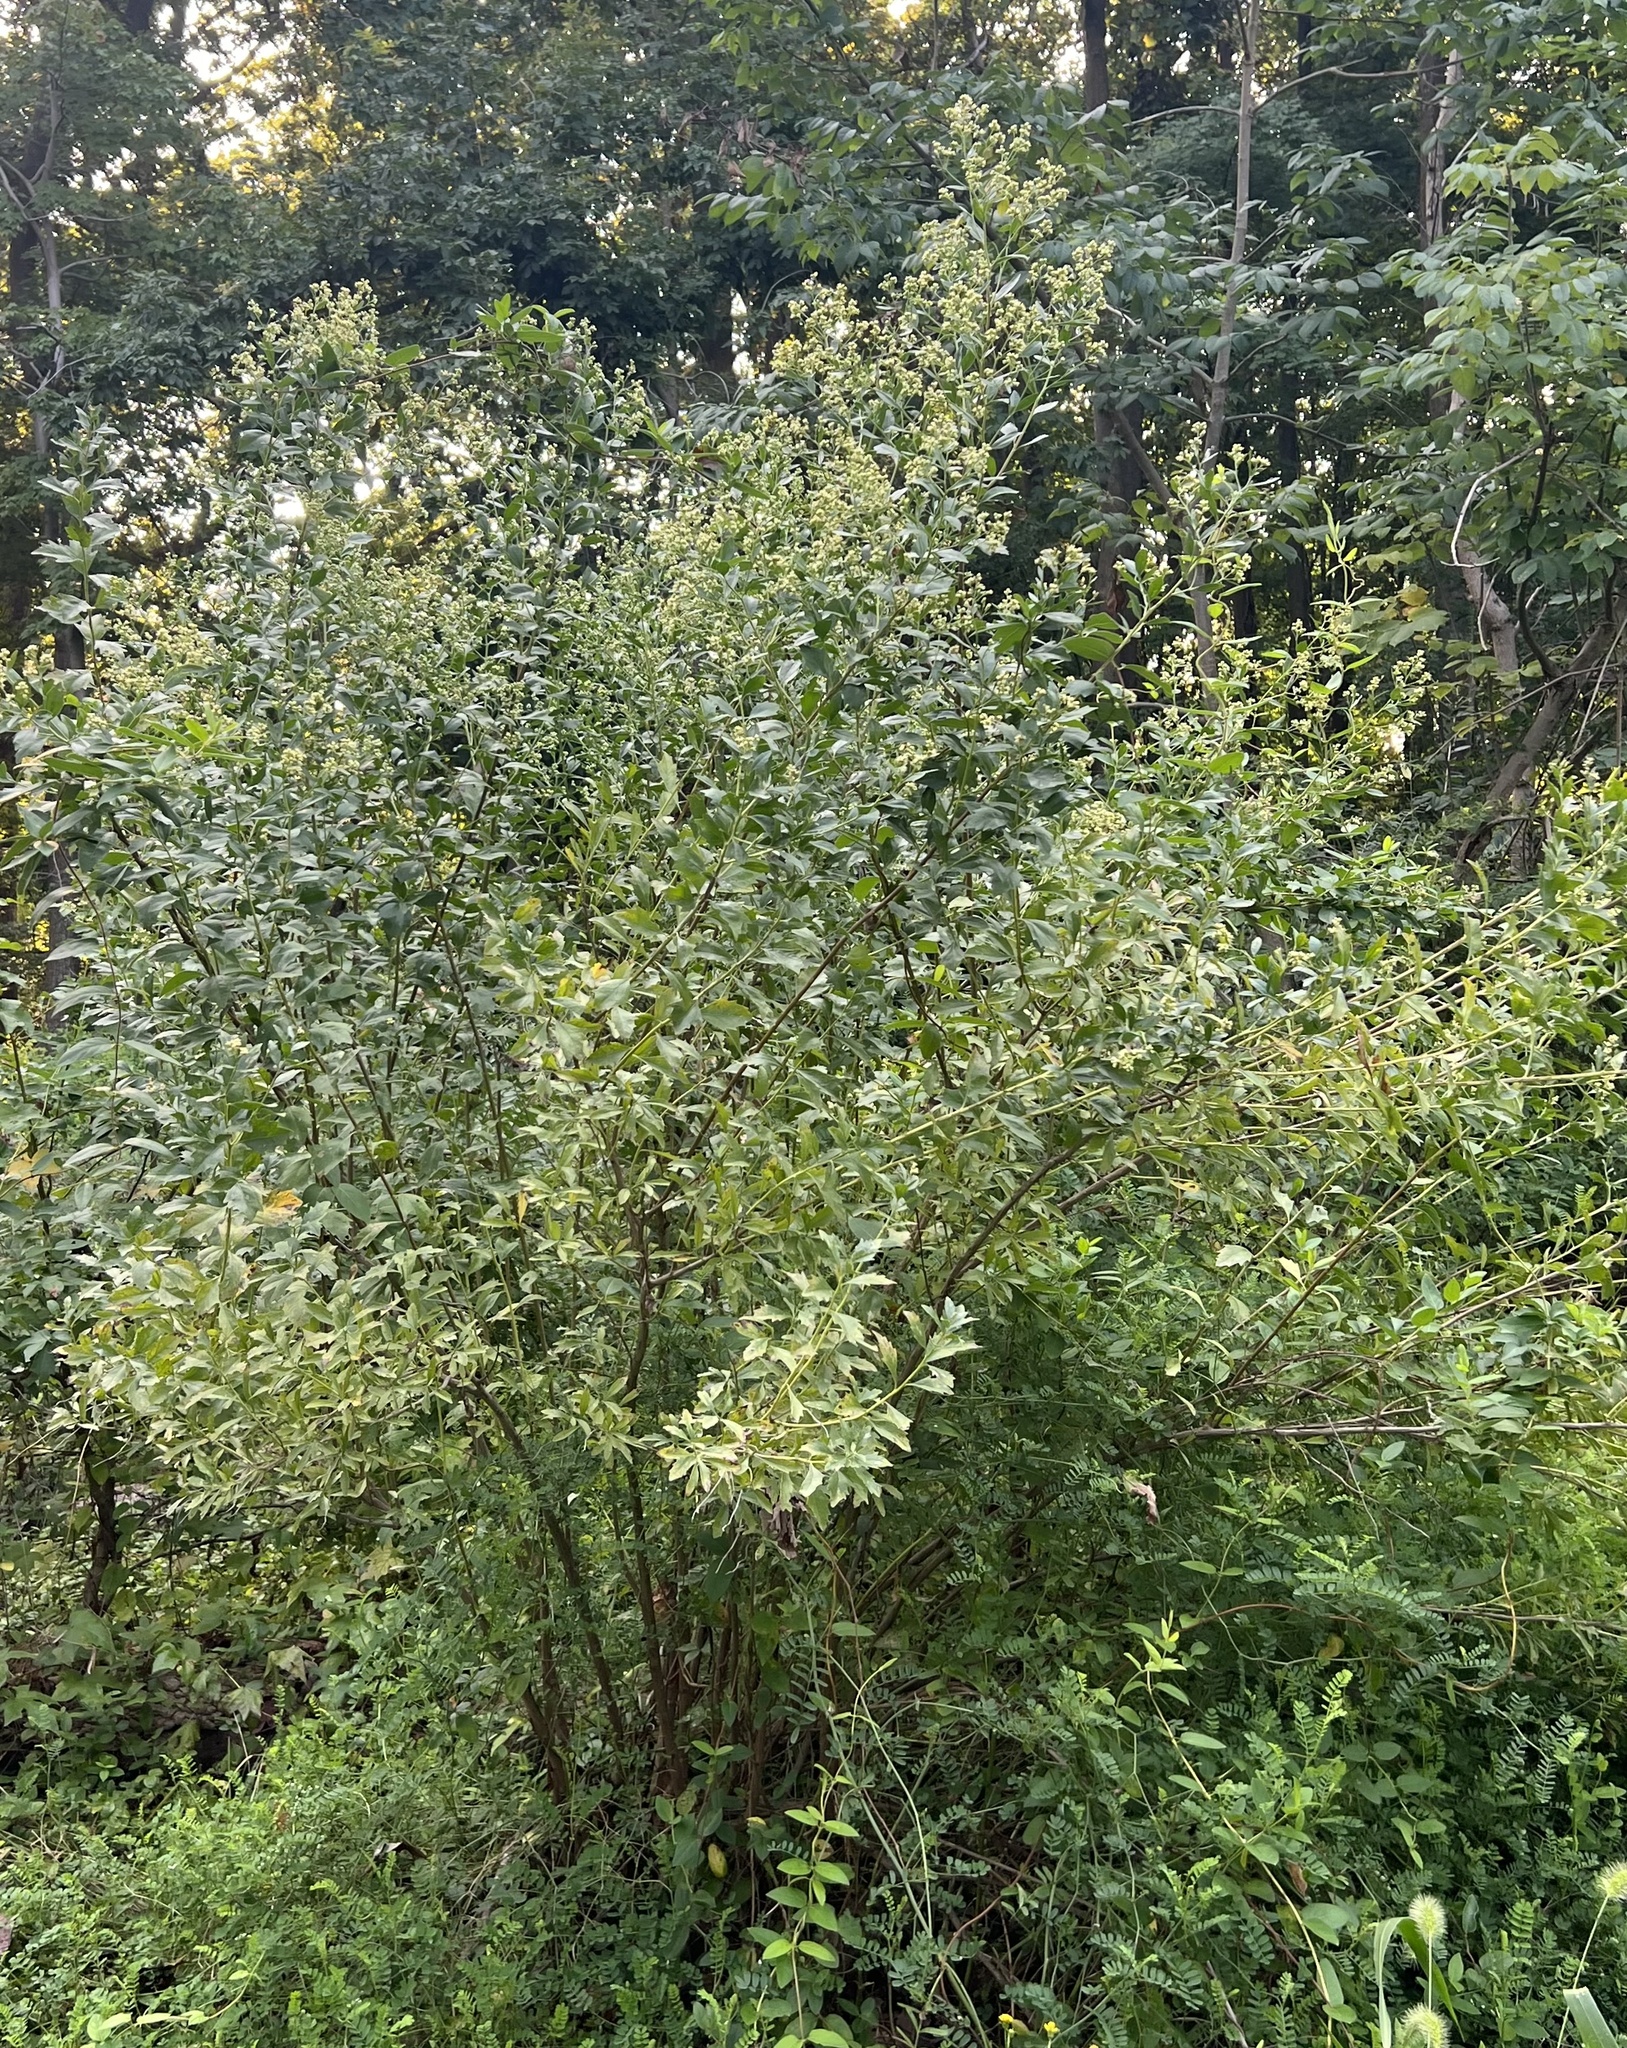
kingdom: Plantae
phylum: Tracheophyta
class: Magnoliopsida
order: Asterales
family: Asteraceae
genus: Baccharis
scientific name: Baccharis halimifolia
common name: Eastern baccharis
